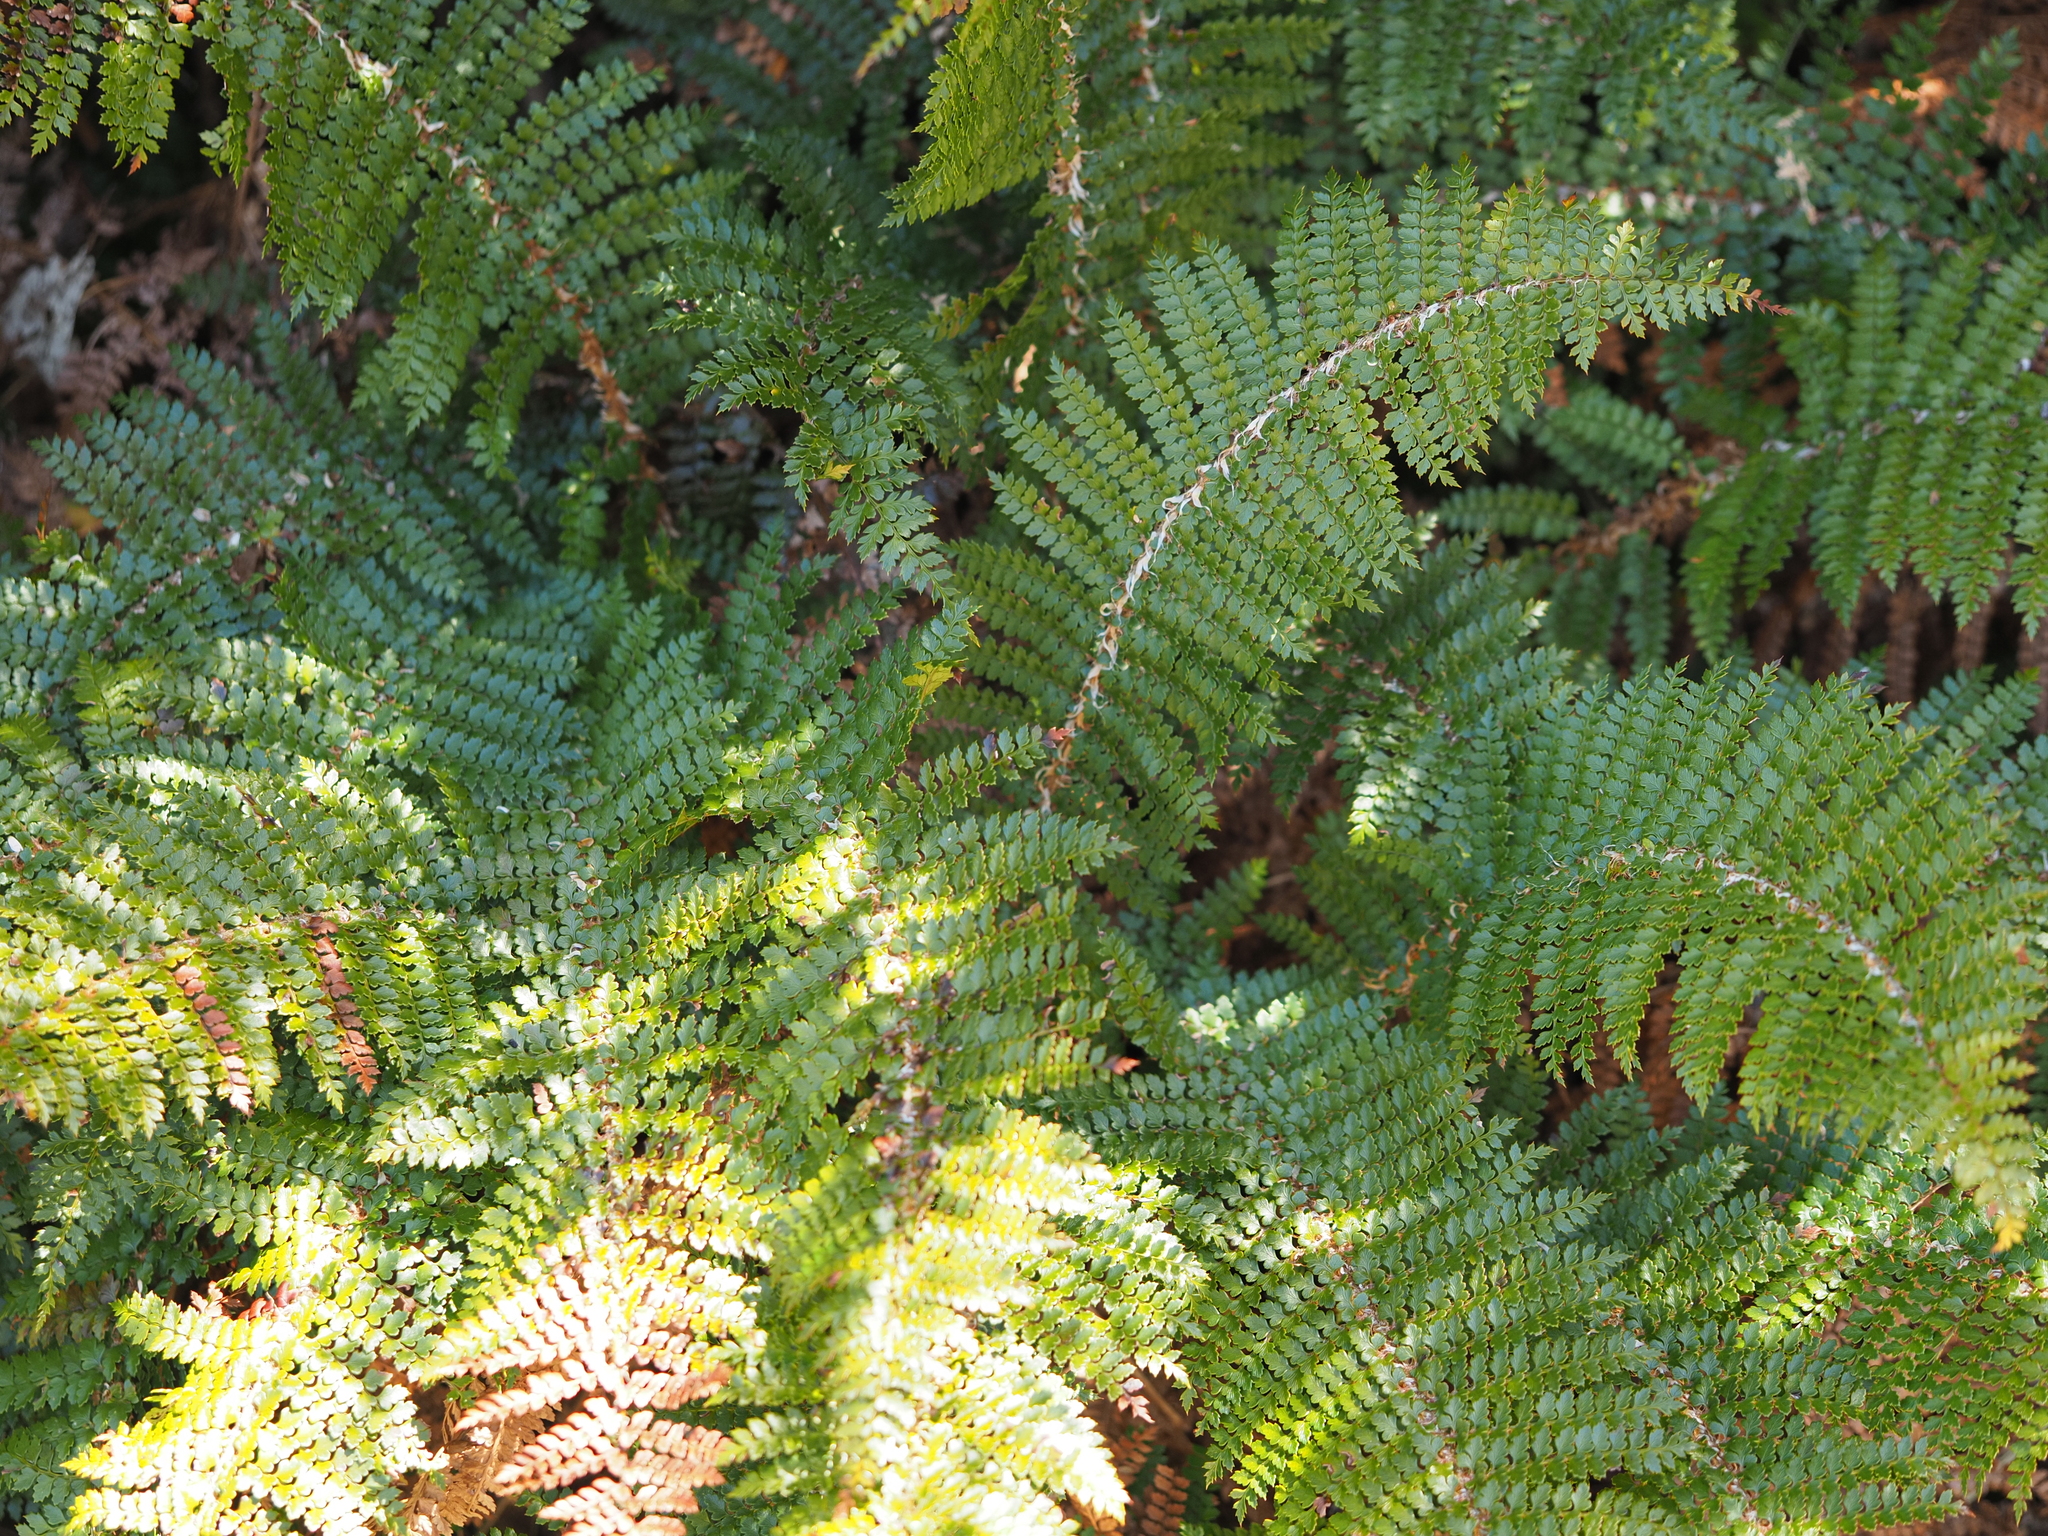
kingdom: Plantae
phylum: Tracheophyta
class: Polypodiopsida
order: Polypodiales
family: Dryopteridaceae
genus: Polystichum
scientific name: Polystichum vestitum
